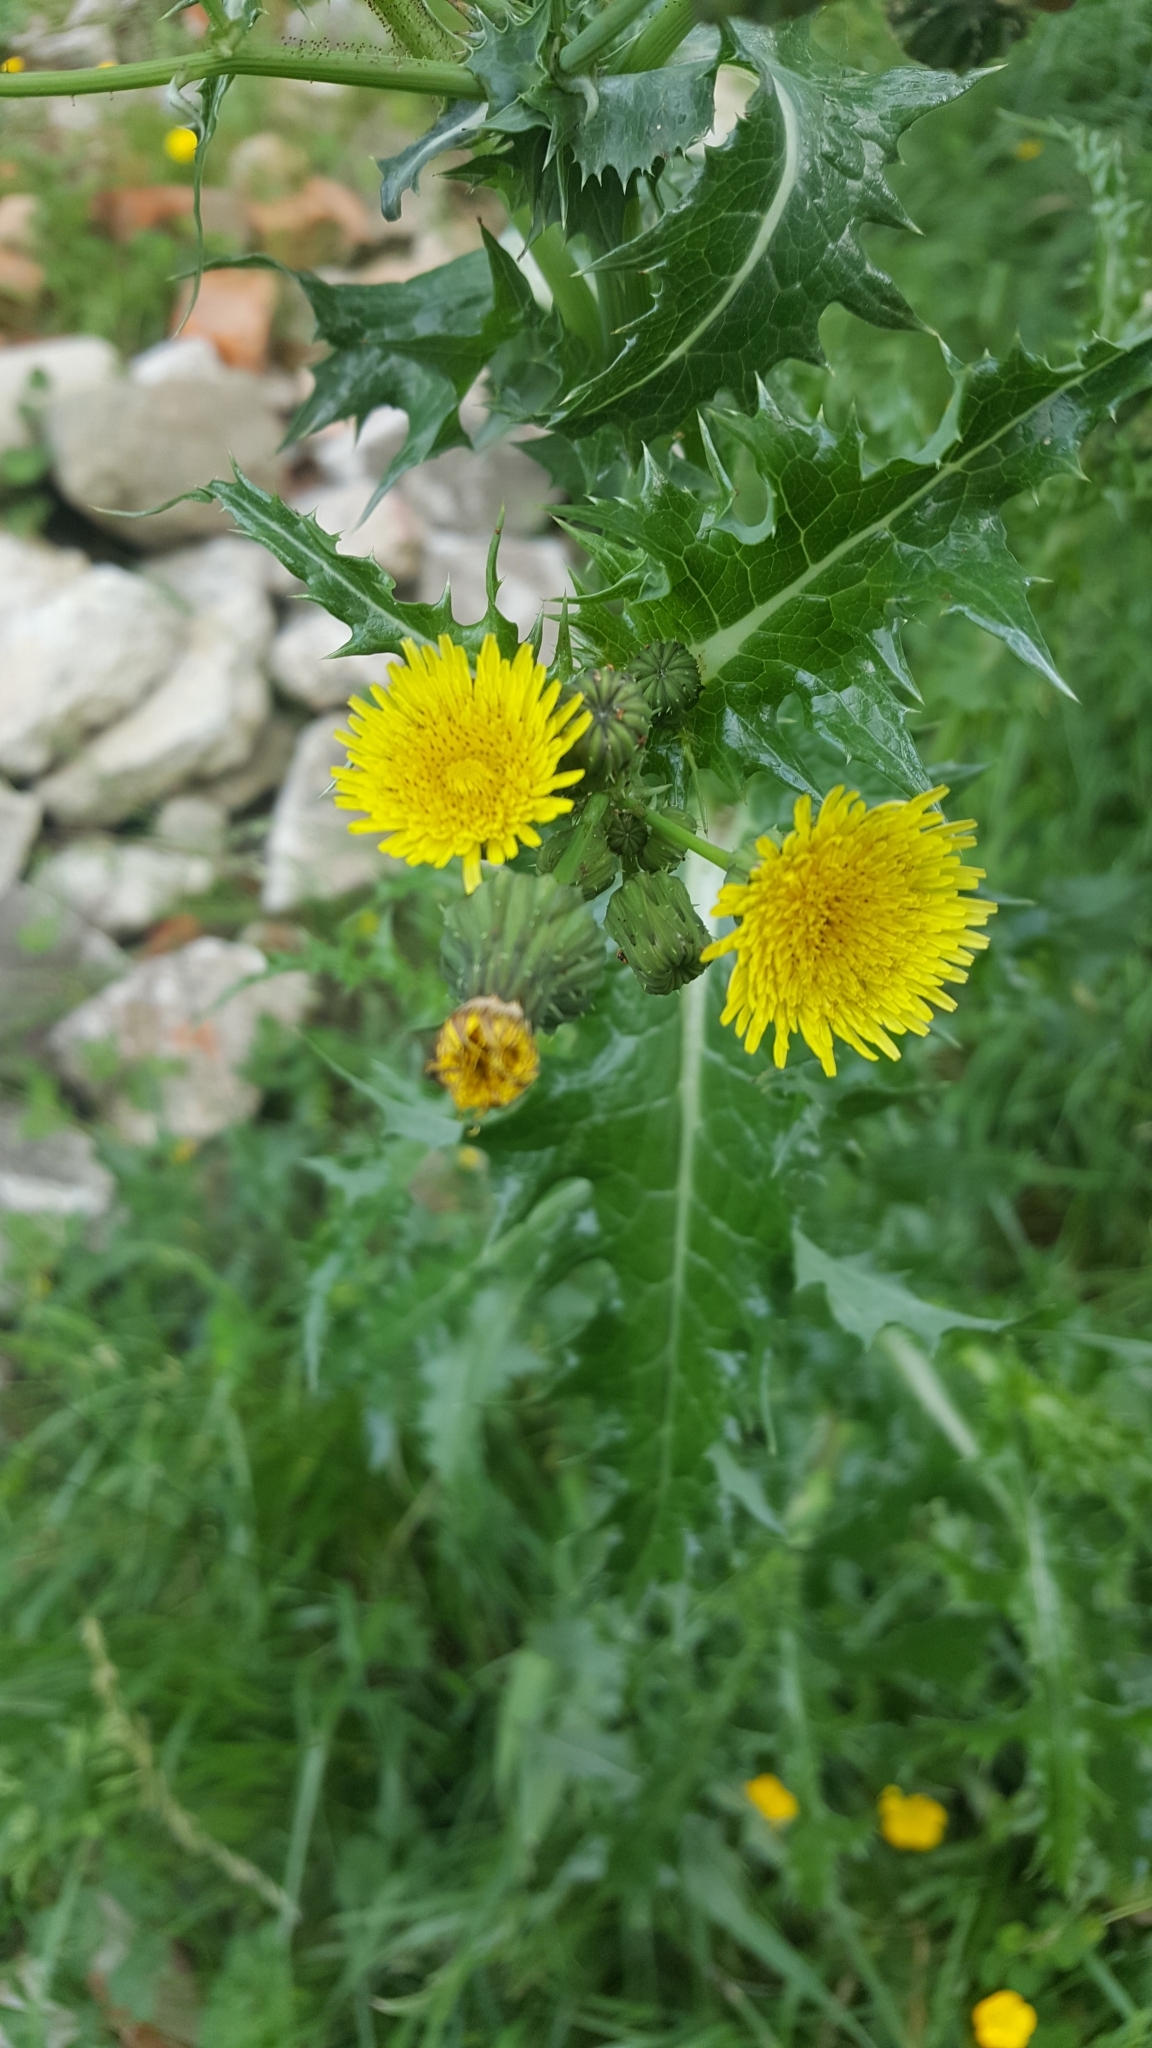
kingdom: Plantae
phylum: Tracheophyta
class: Magnoliopsida
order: Asterales
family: Asteraceae
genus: Sonchus
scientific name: Sonchus asper
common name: Prickly sow-thistle
